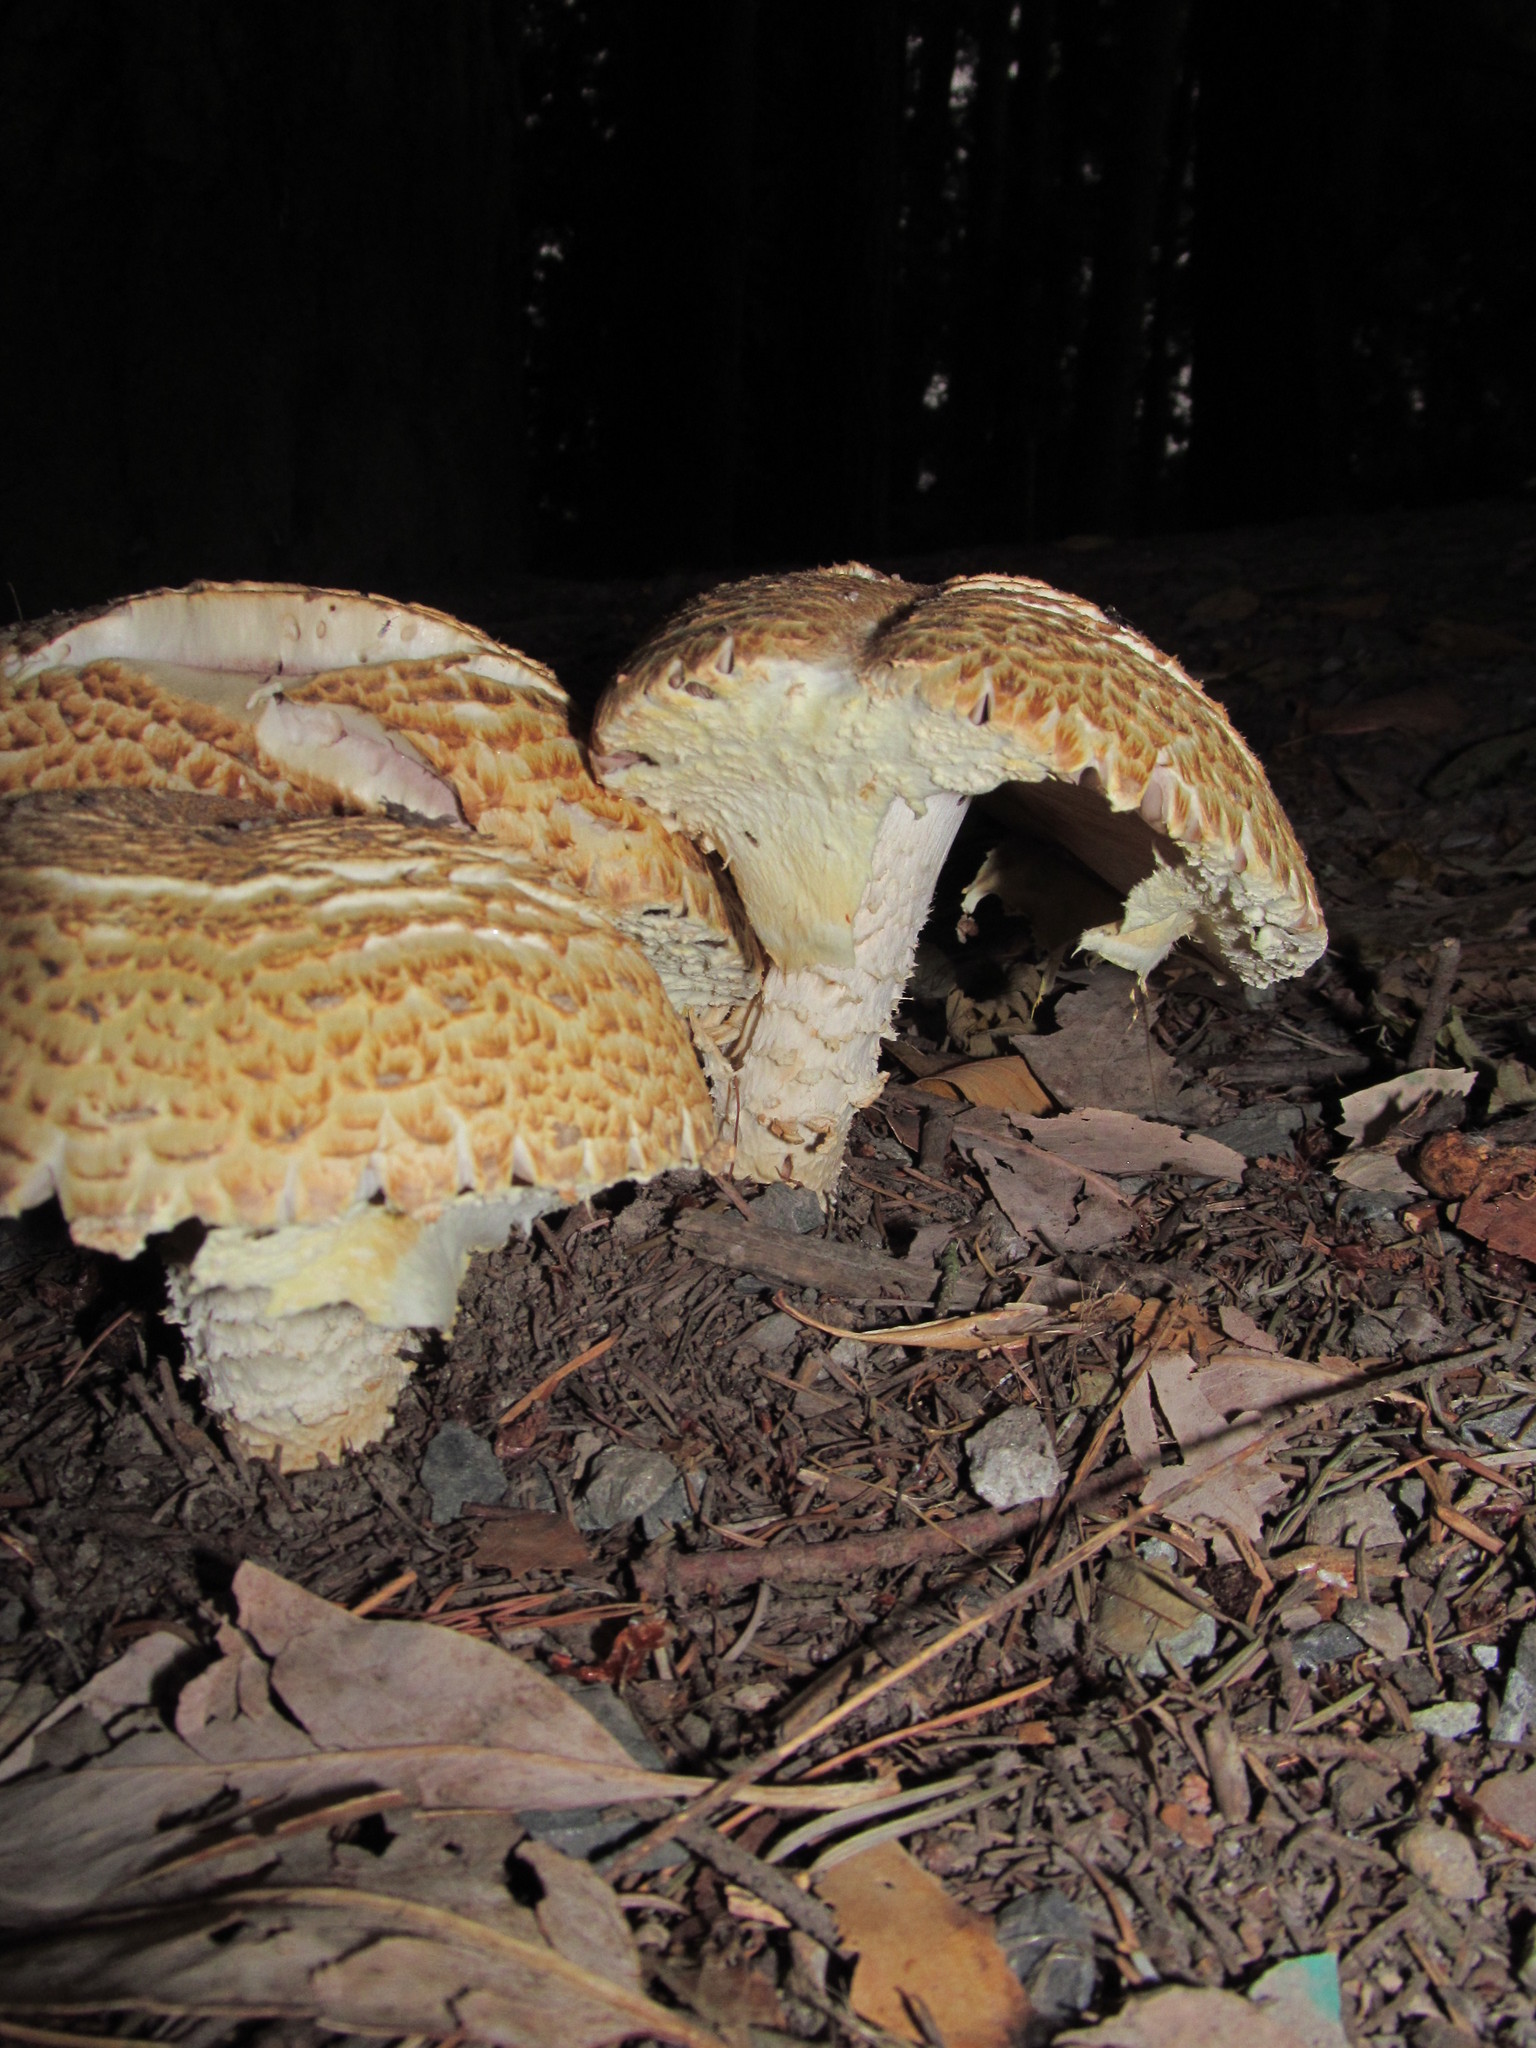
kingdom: Fungi
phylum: Basidiomycota
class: Agaricomycetes
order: Agaricales
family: Agaricaceae
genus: Agaricus
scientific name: Agaricus augustus
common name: Prince
